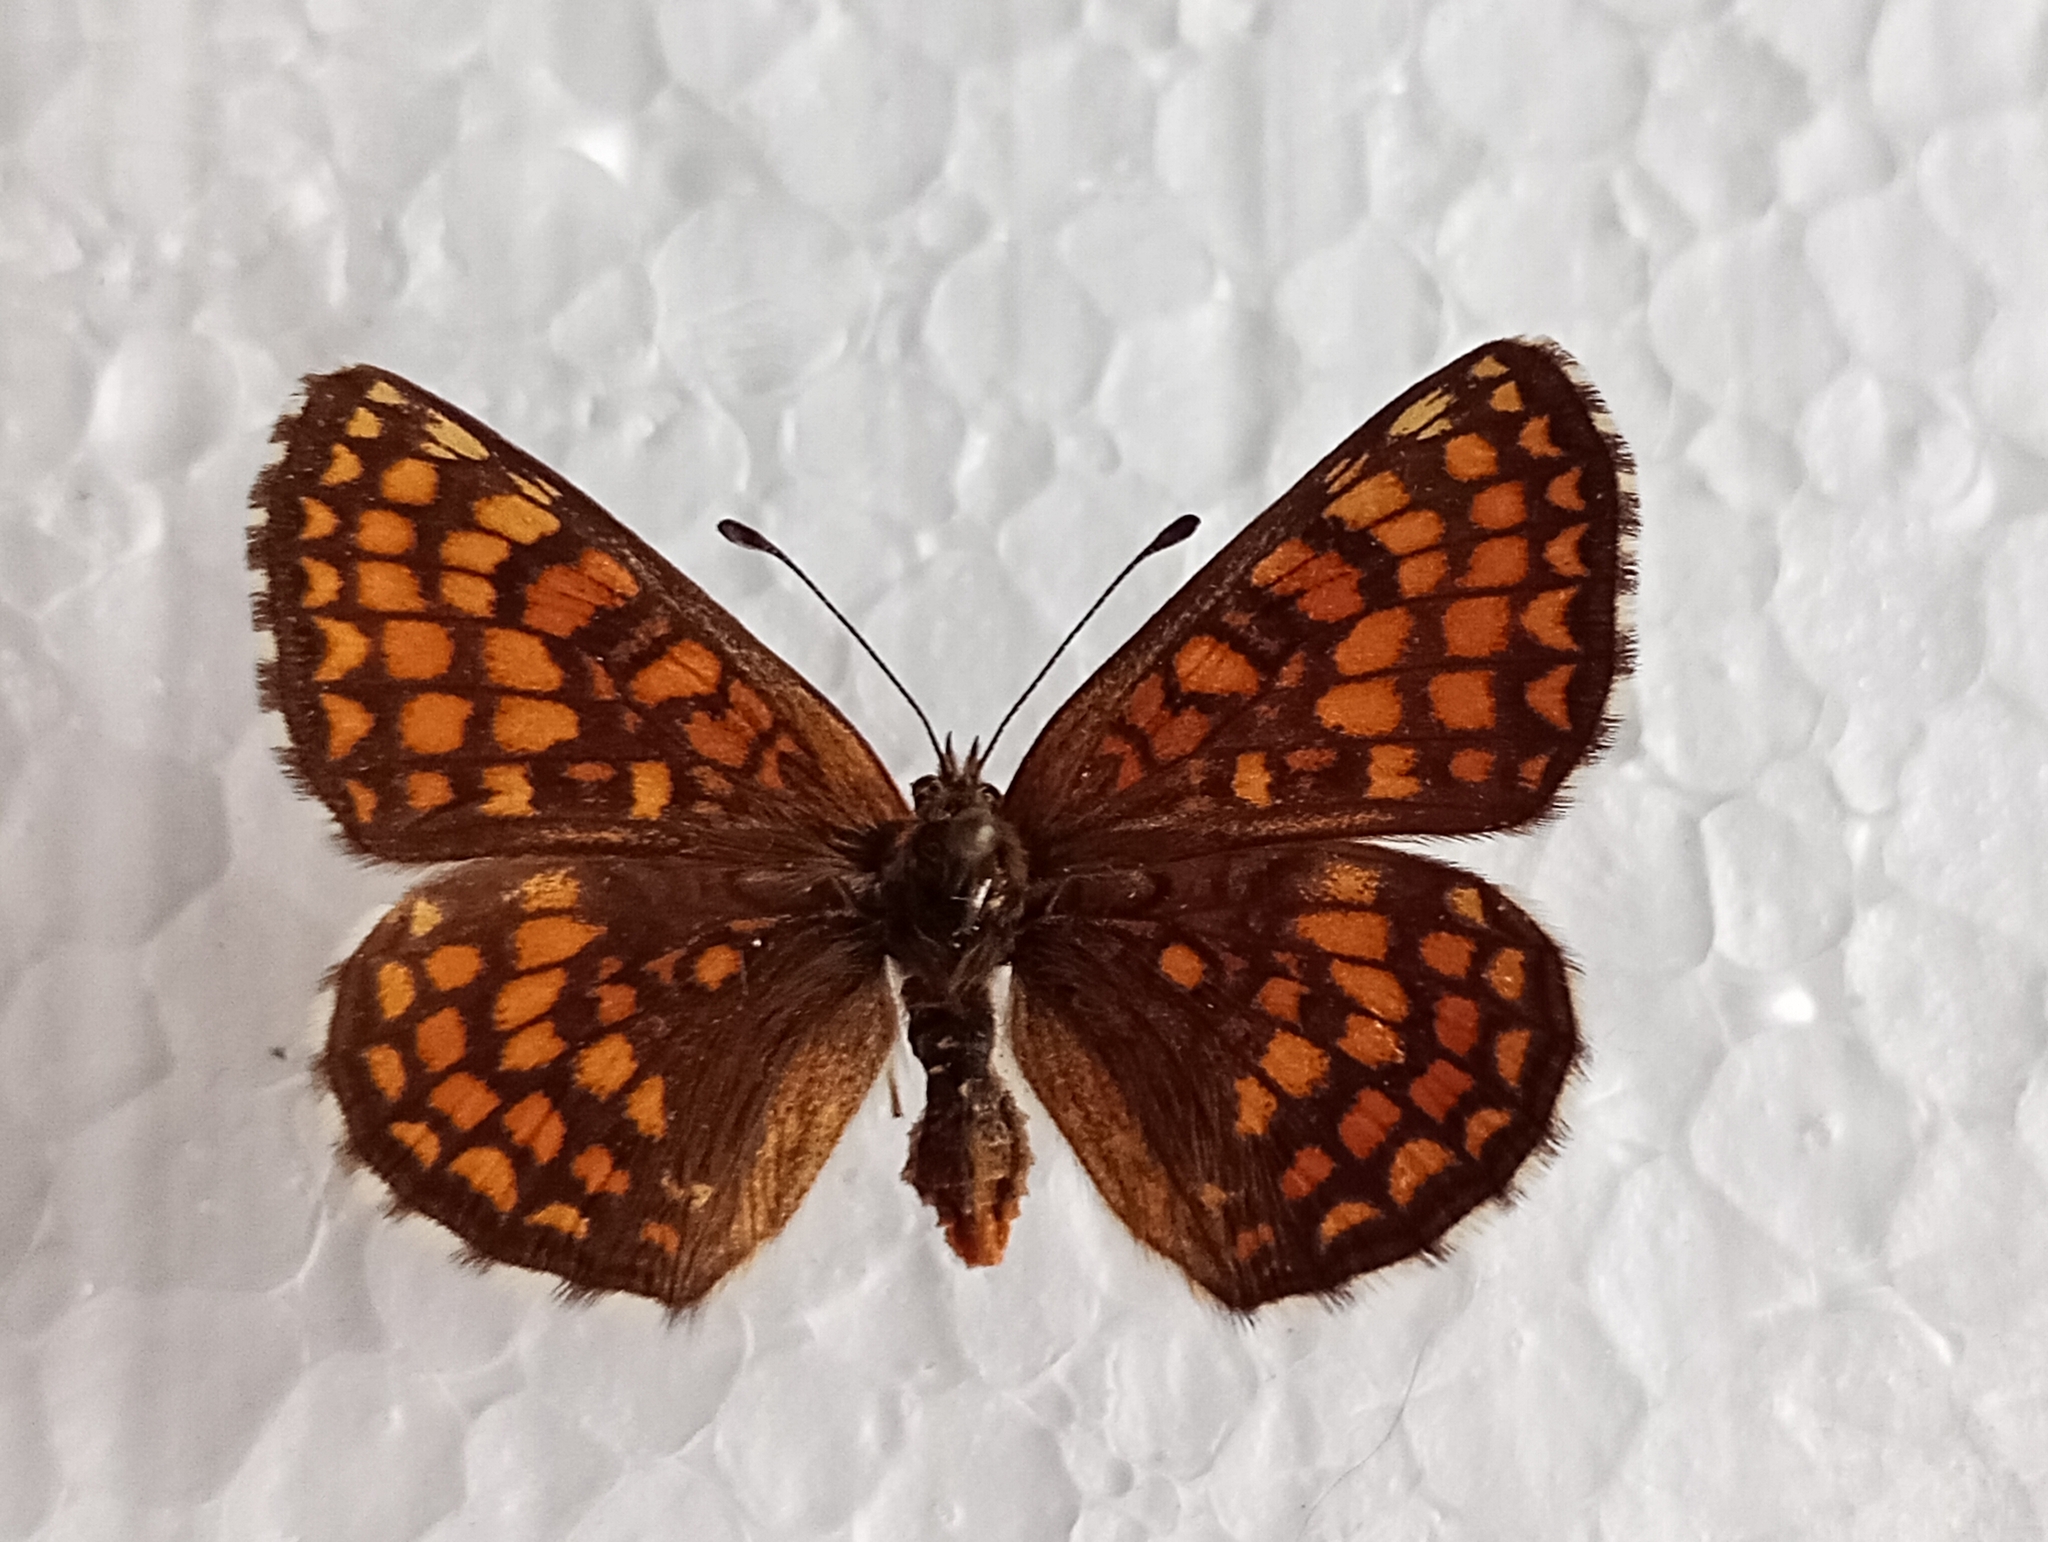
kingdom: Animalia
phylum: Arthropoda
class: Insecta
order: Lepidoptera
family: Nymphalidae
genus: Melitaea
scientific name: Melitaea athalia
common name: Heath fritillary
